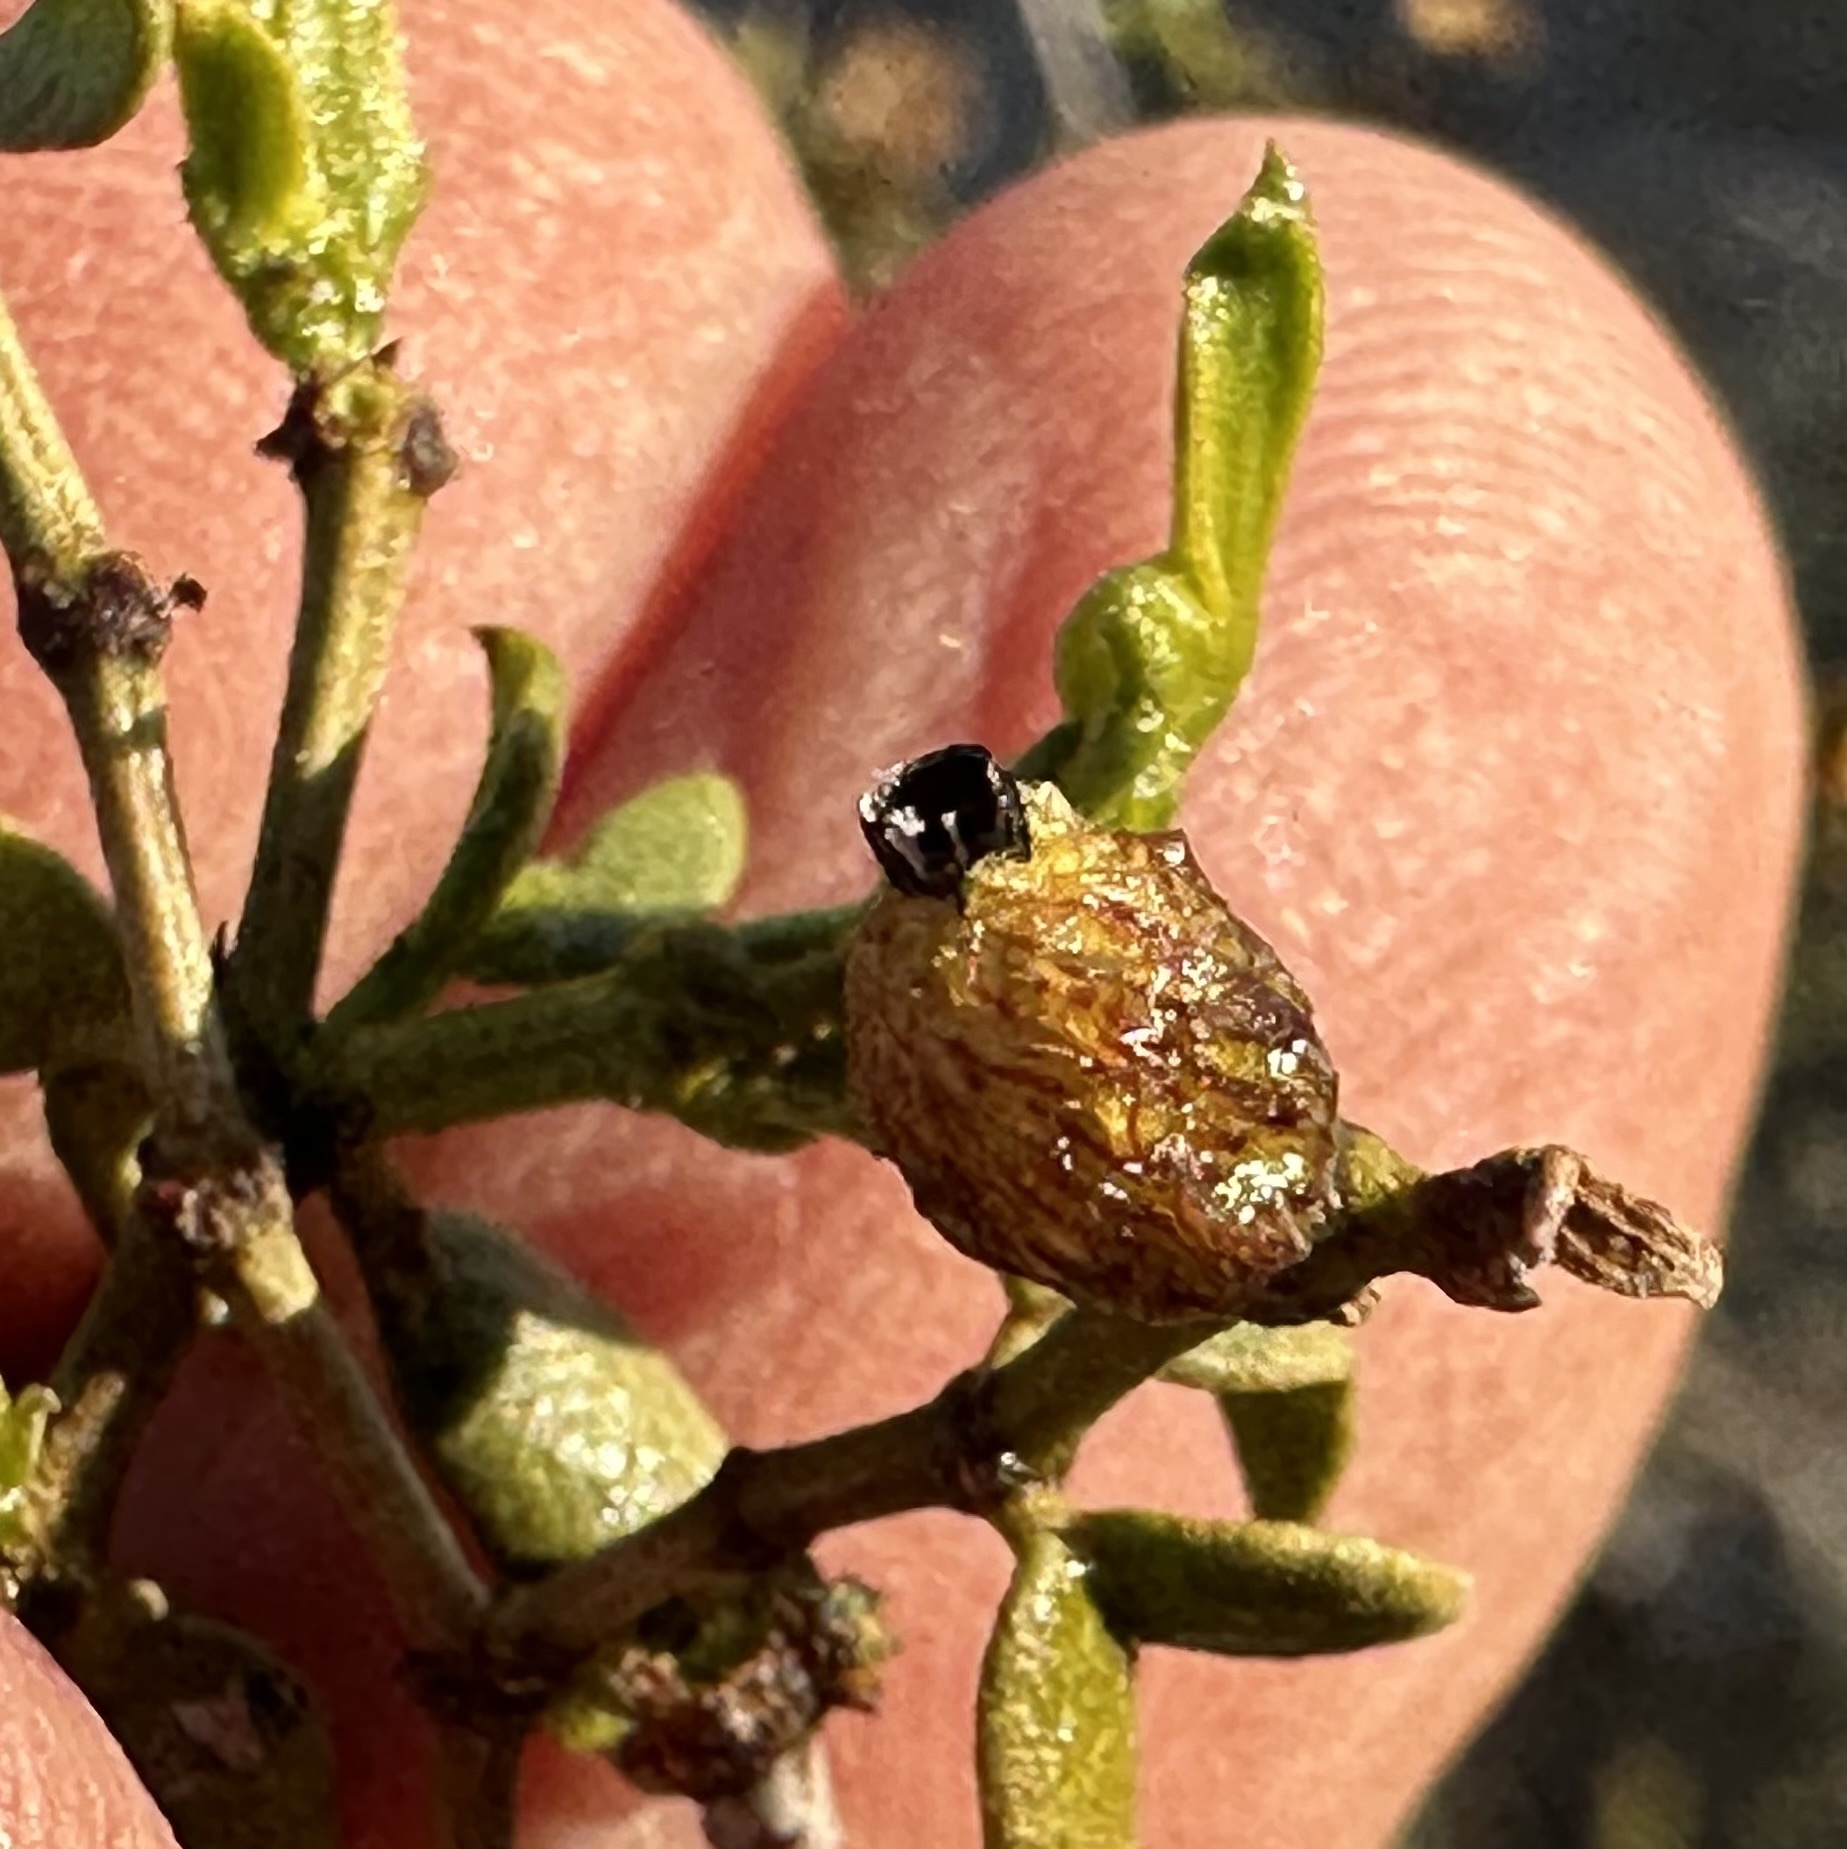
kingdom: Animalia
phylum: Arthropoda
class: Insecta
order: Diptera
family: Cecidomyiidae
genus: Asphondylia
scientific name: Asphondylia resinosa
